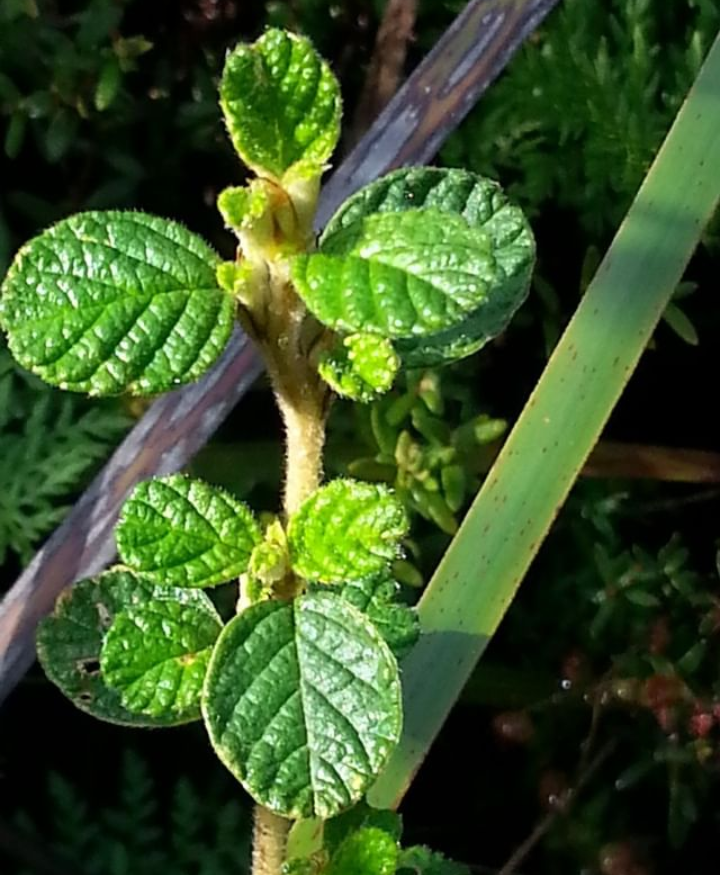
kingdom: Plantae
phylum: Tracheophyta
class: Magnoliopsida
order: Rosales
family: Rhamnaceae
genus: Spyridium
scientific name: Spyridium parvifolium
